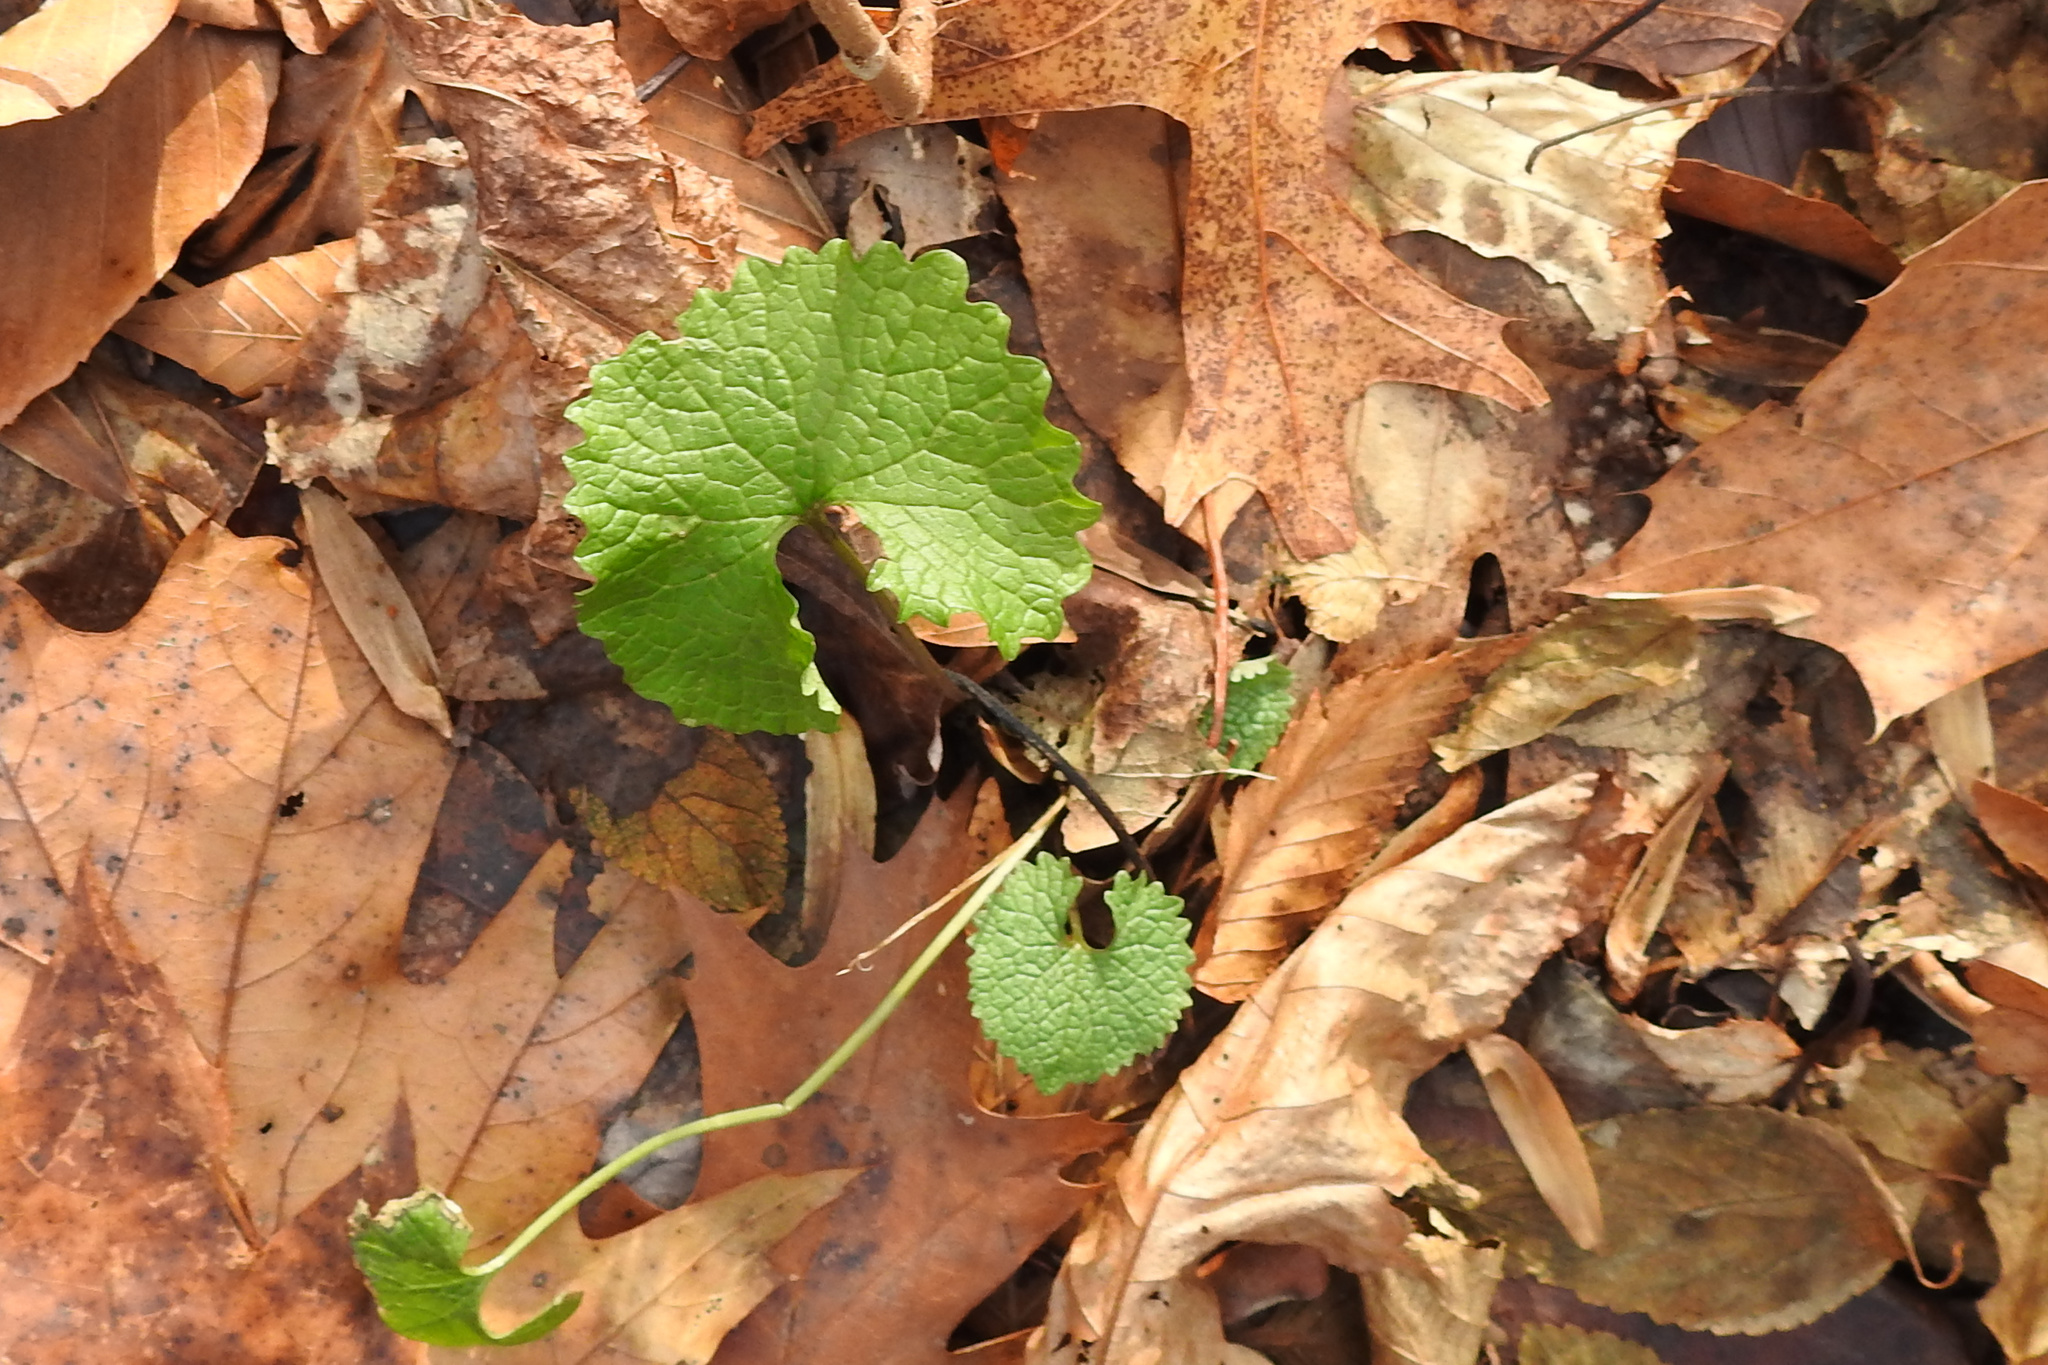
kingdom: Plantae
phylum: Tracheophyta
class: Magnoliopsida
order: Brassicales
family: Brassicaceae
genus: Alliaria
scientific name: Alliaria petiolata
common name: Garlic mustard
